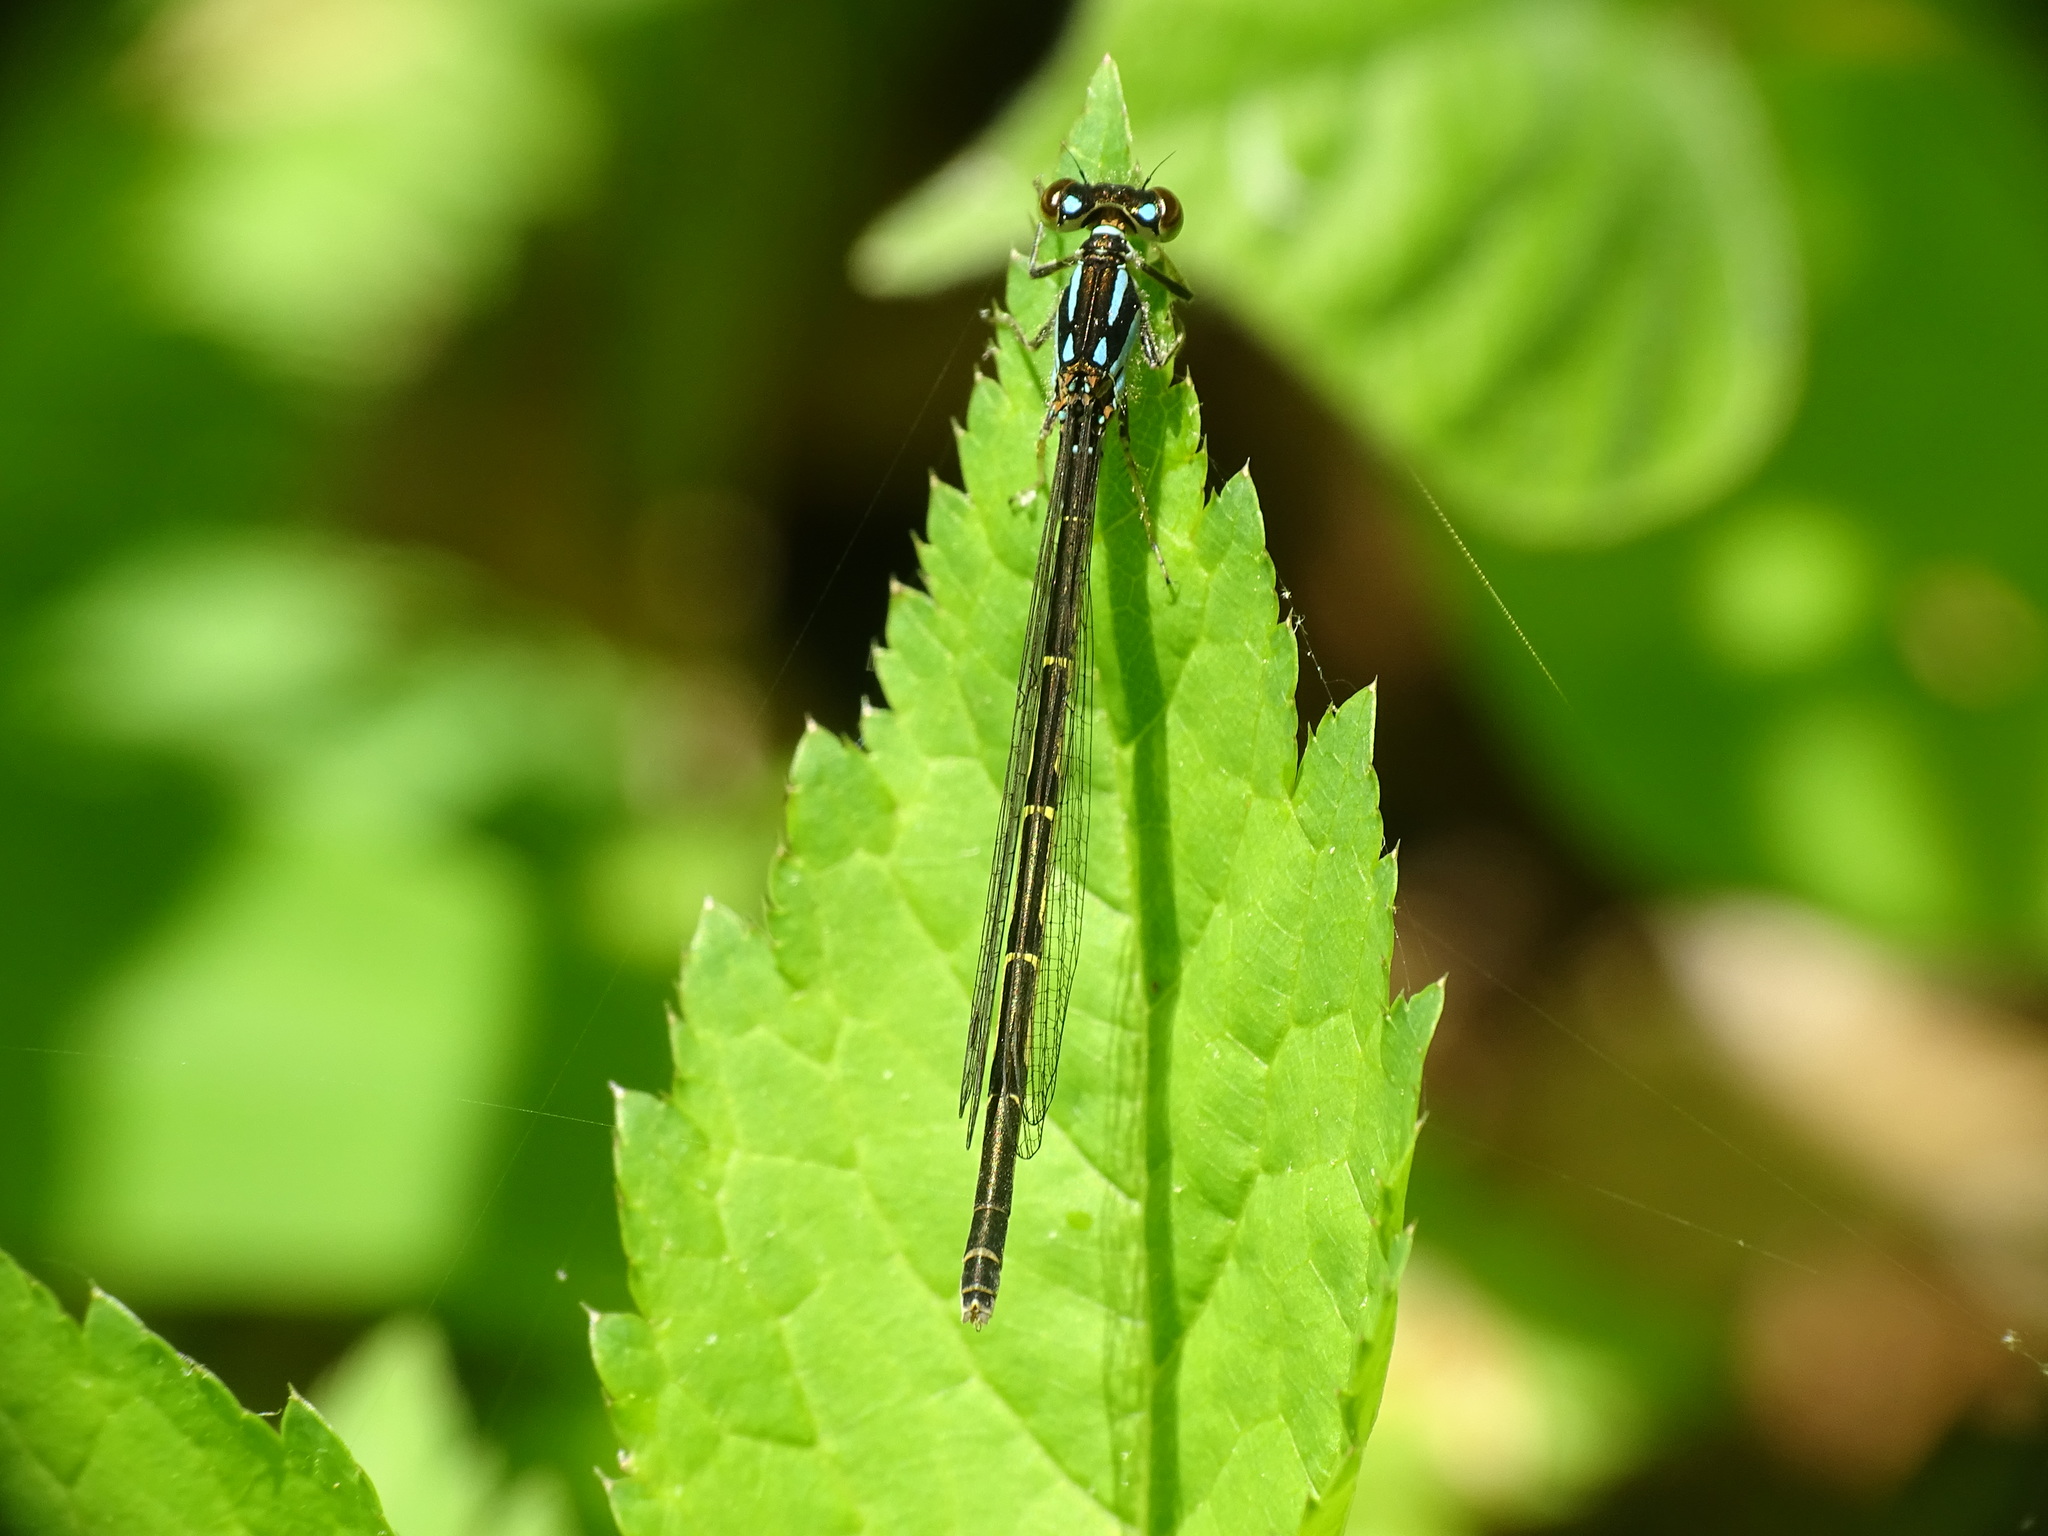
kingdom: Animalia
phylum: Arthropoda
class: Insecta
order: Odonata
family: Coenagrionidae
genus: Ischnura
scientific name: Ischnura posita
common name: Fragile forktail
